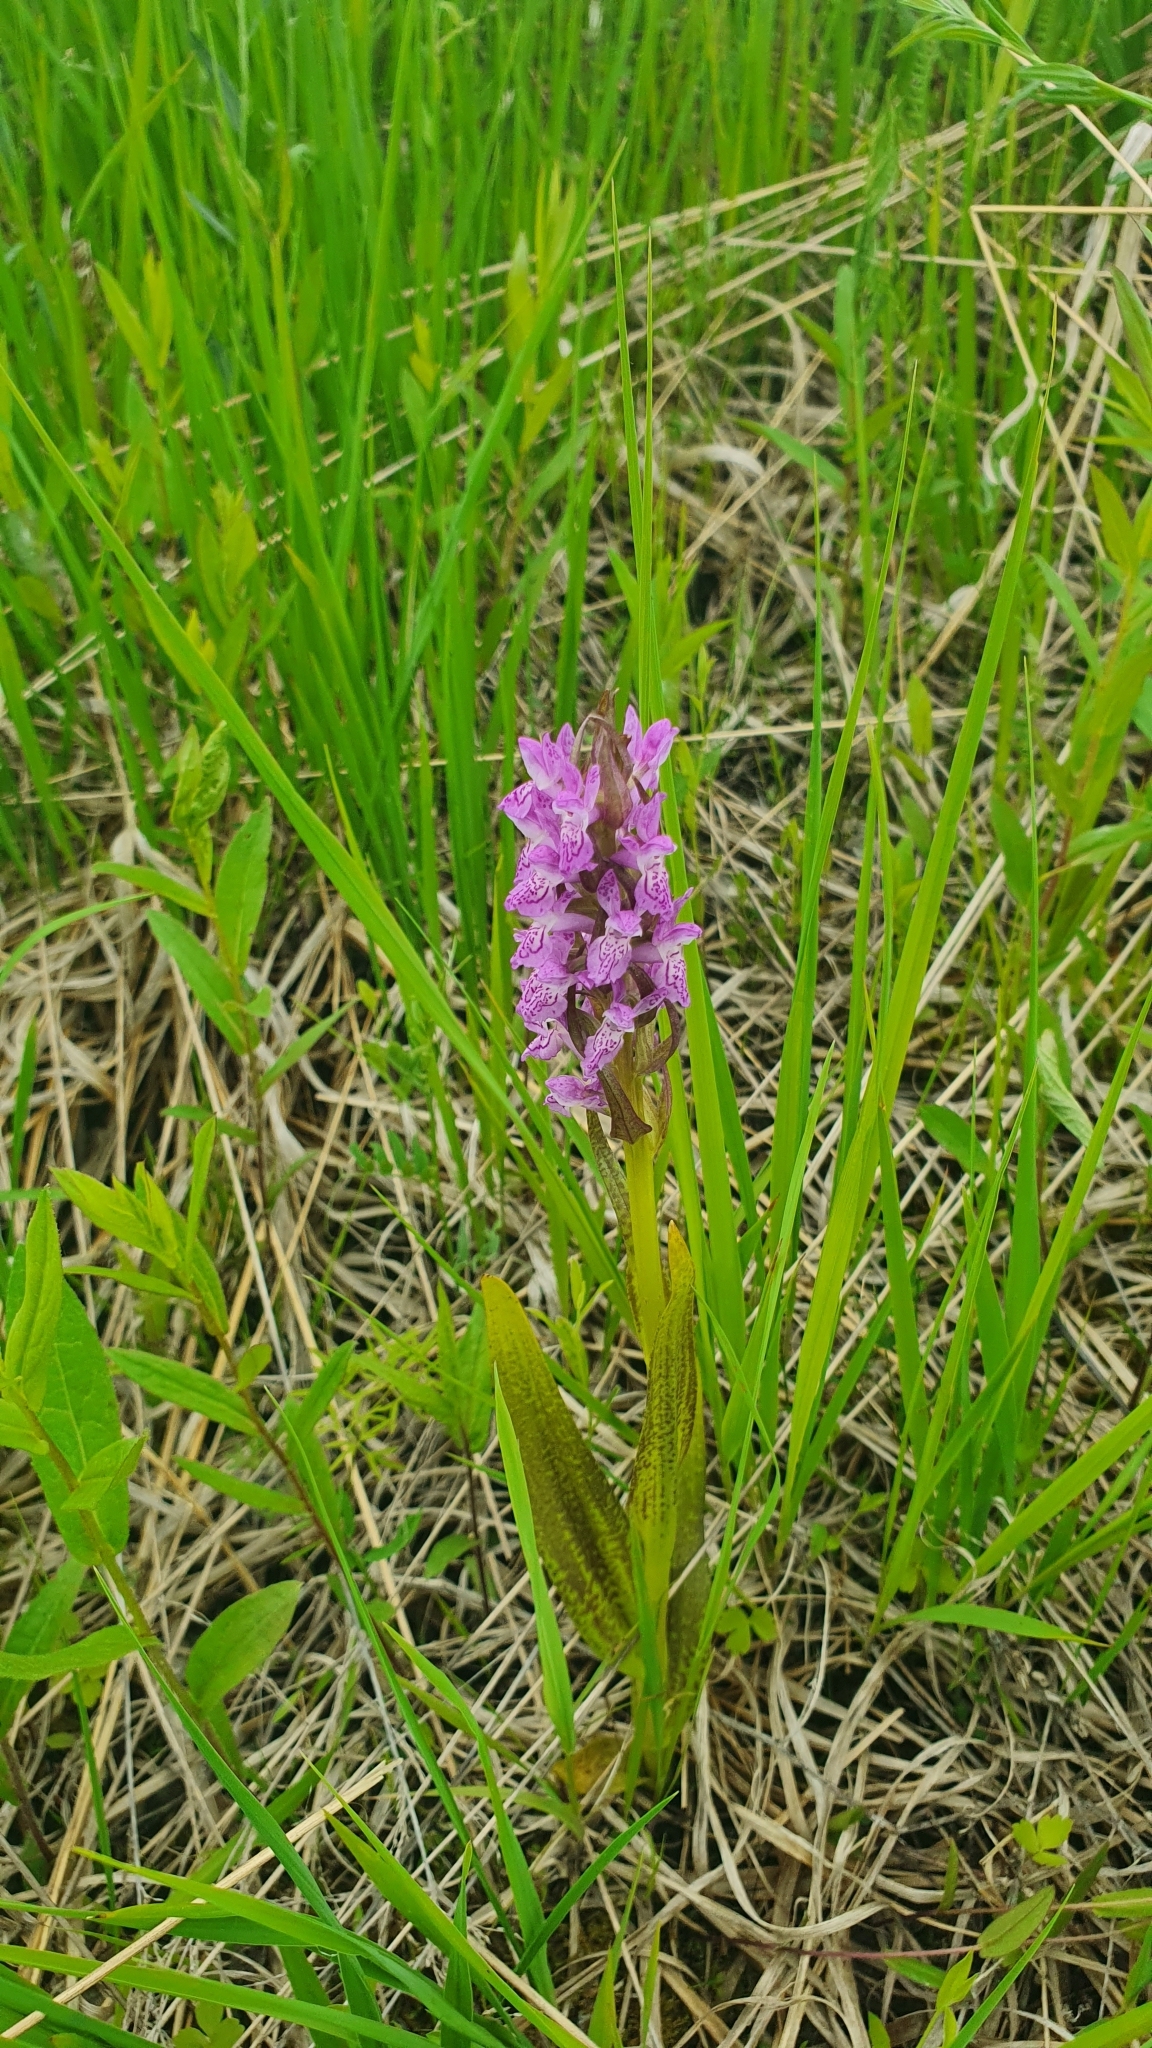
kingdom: Plantae
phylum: Tracheophyta
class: Liliopsida
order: Asparagales
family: Orchidaceae
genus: Dactylorhiza
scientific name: Dactylorhiza incarnata
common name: Early marsh-orchid
